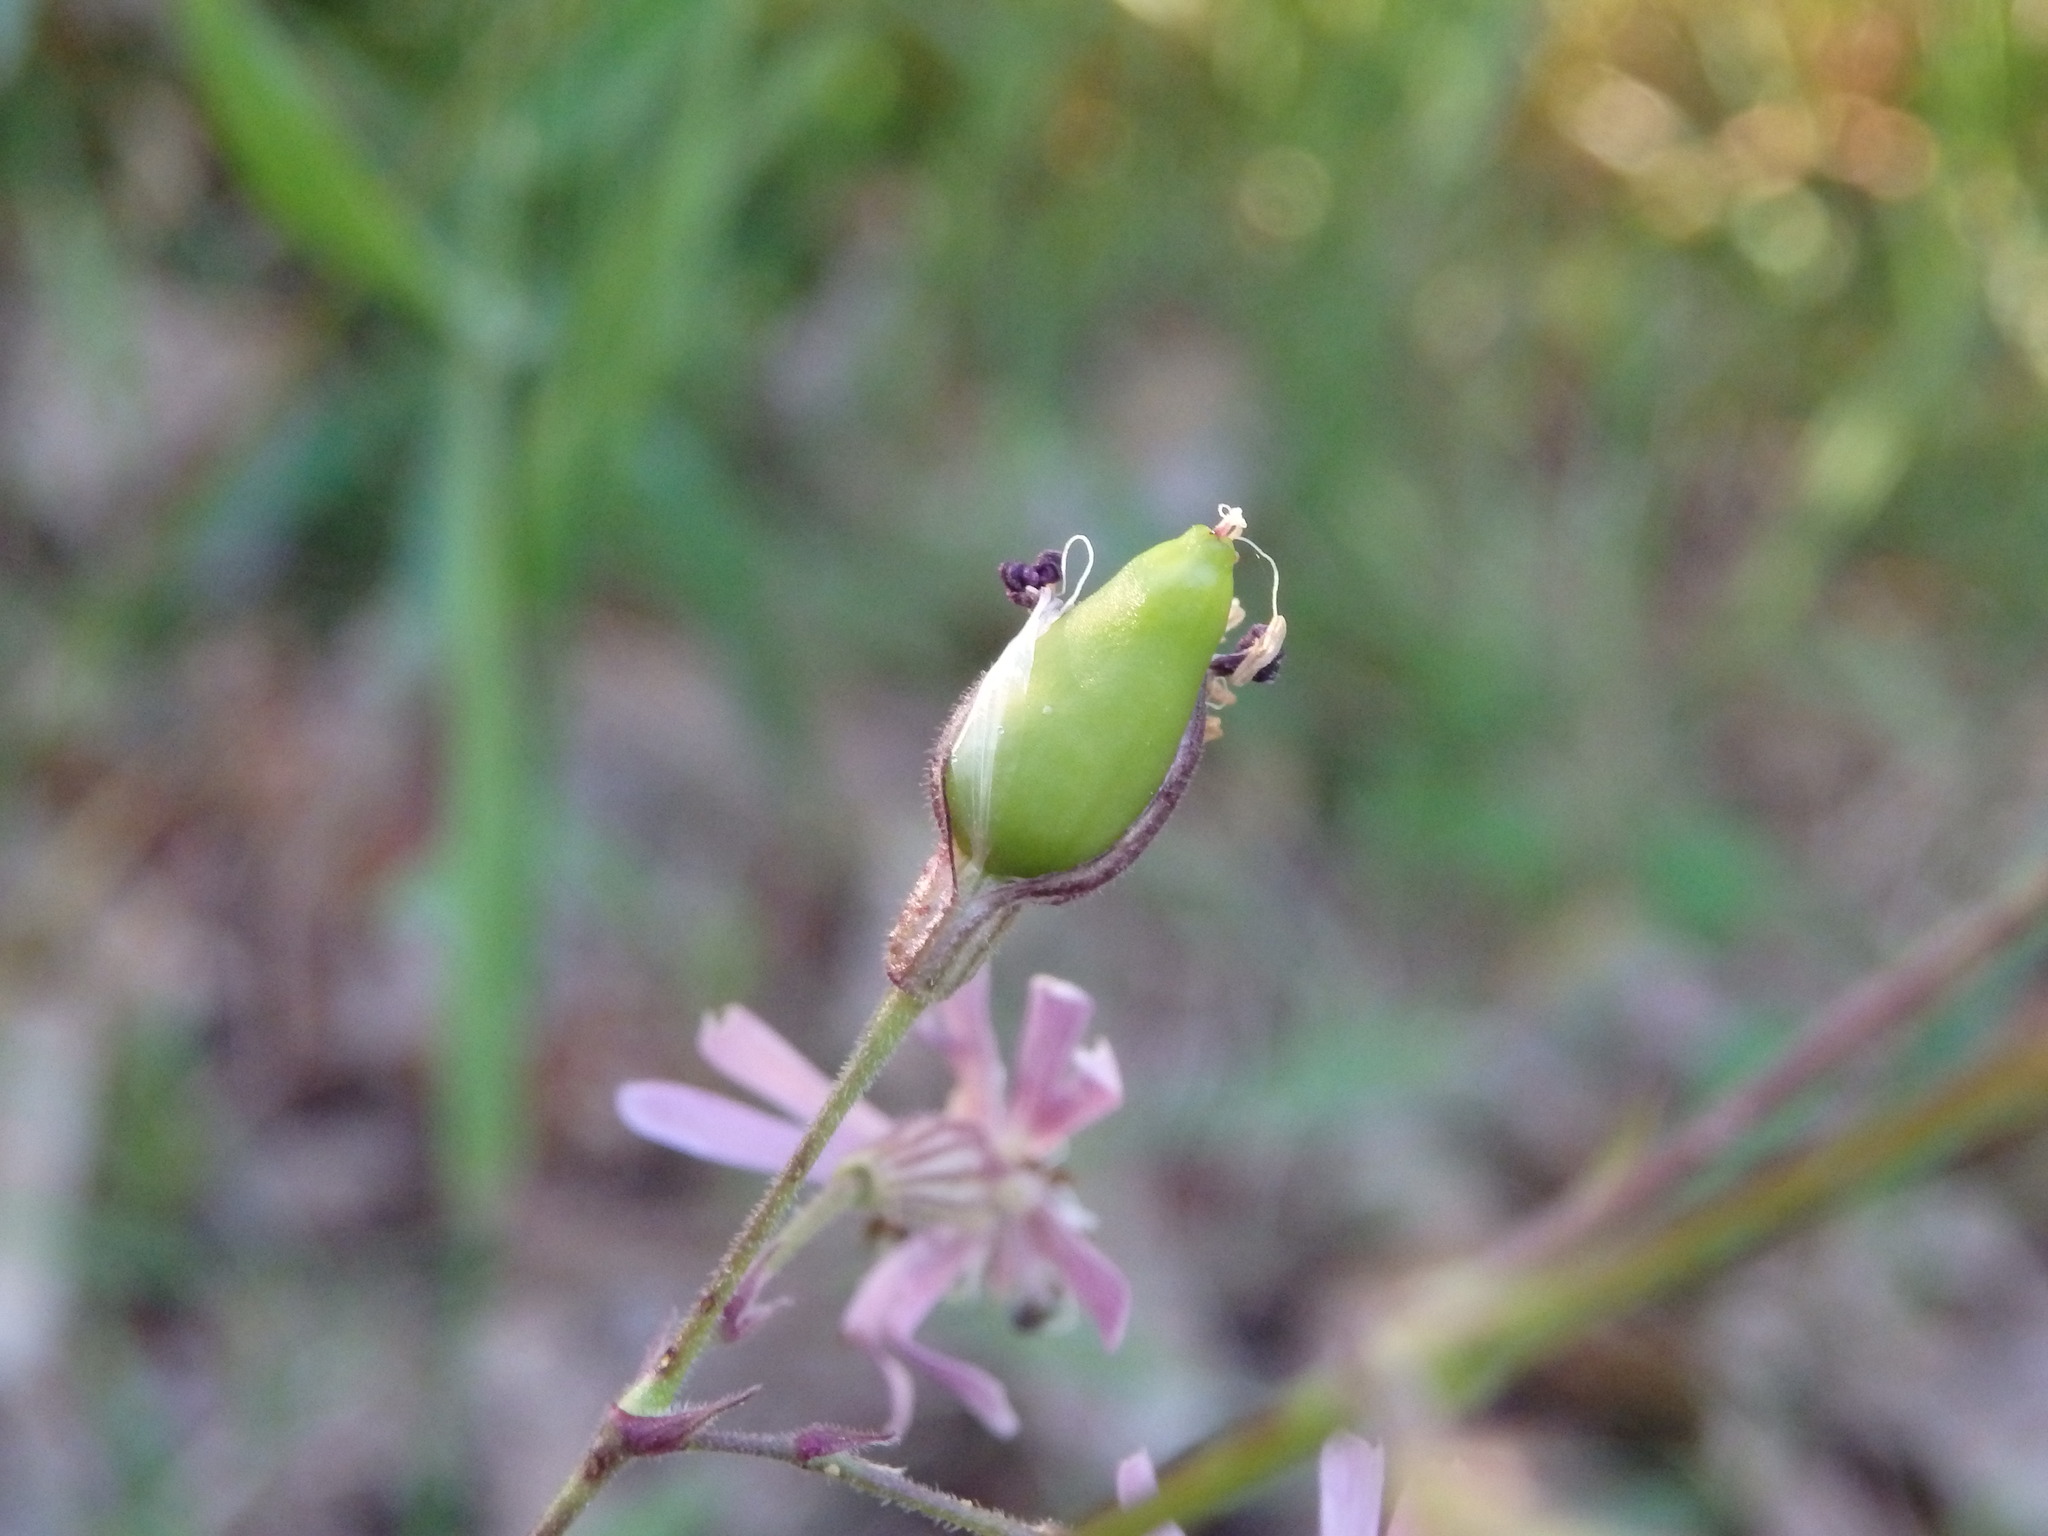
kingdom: Plantae
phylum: Tracheophyta
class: Magnoliopsida
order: Caryophyllales
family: Caryophyllaceae
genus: Silene
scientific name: Silene nutans
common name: Nottingham catchfly
